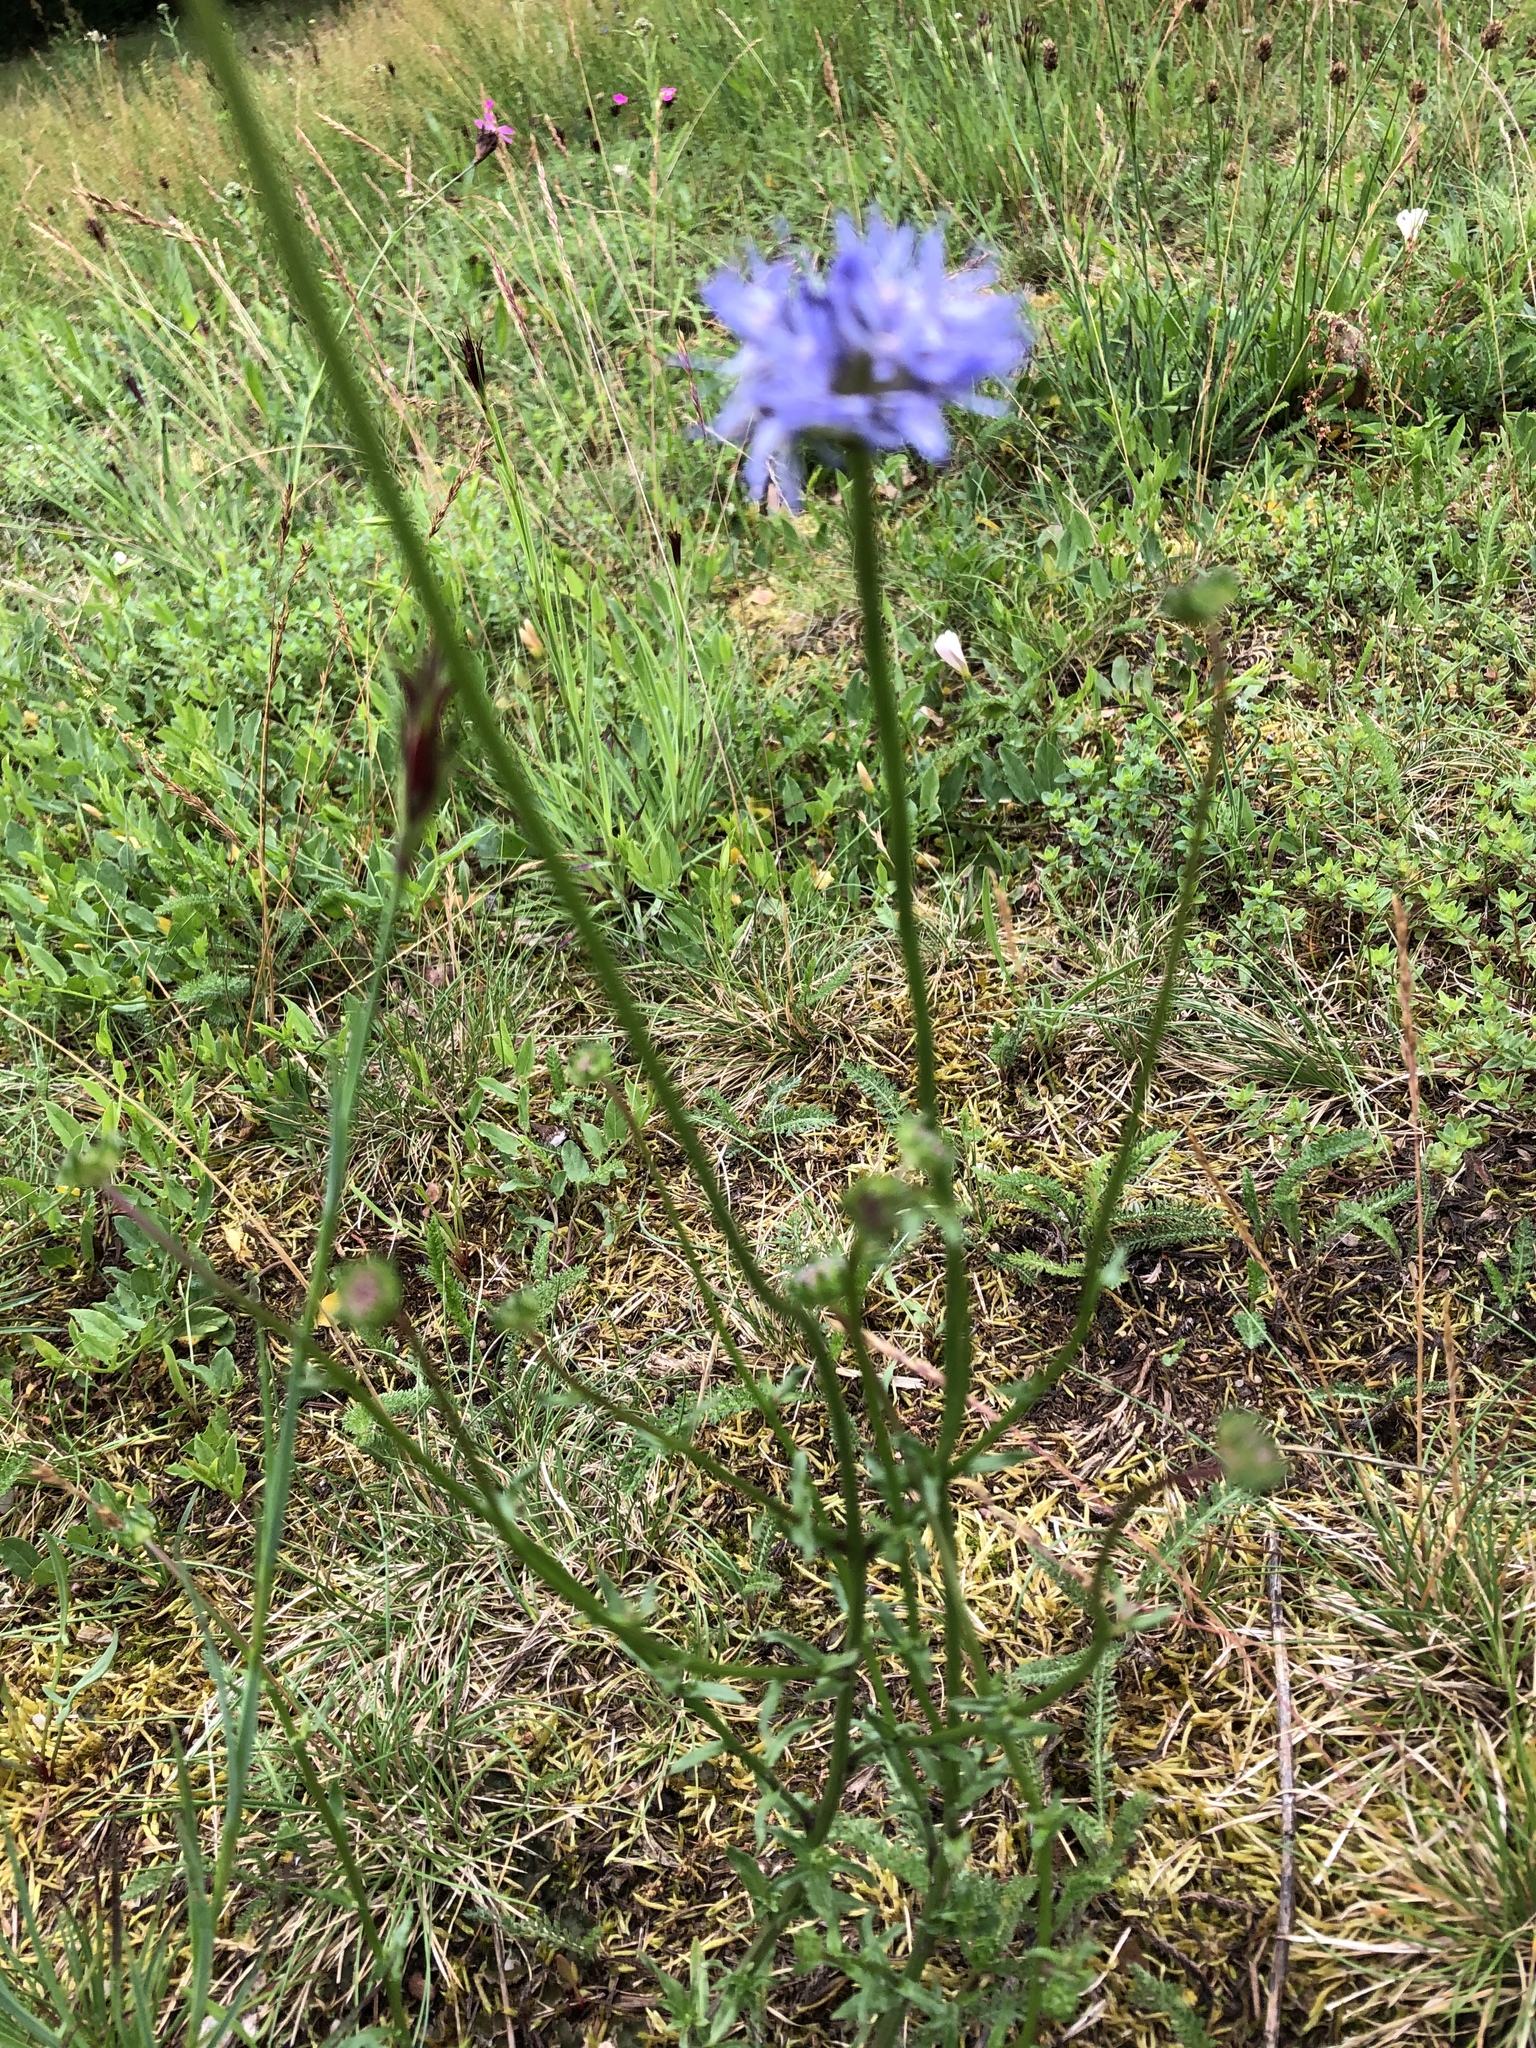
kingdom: Plantae
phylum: Tracheophyta
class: Magnoliopsida
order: Asterales
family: Campanulaceae
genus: Jasione
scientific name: Jasione montana
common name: Sheep's-bit
